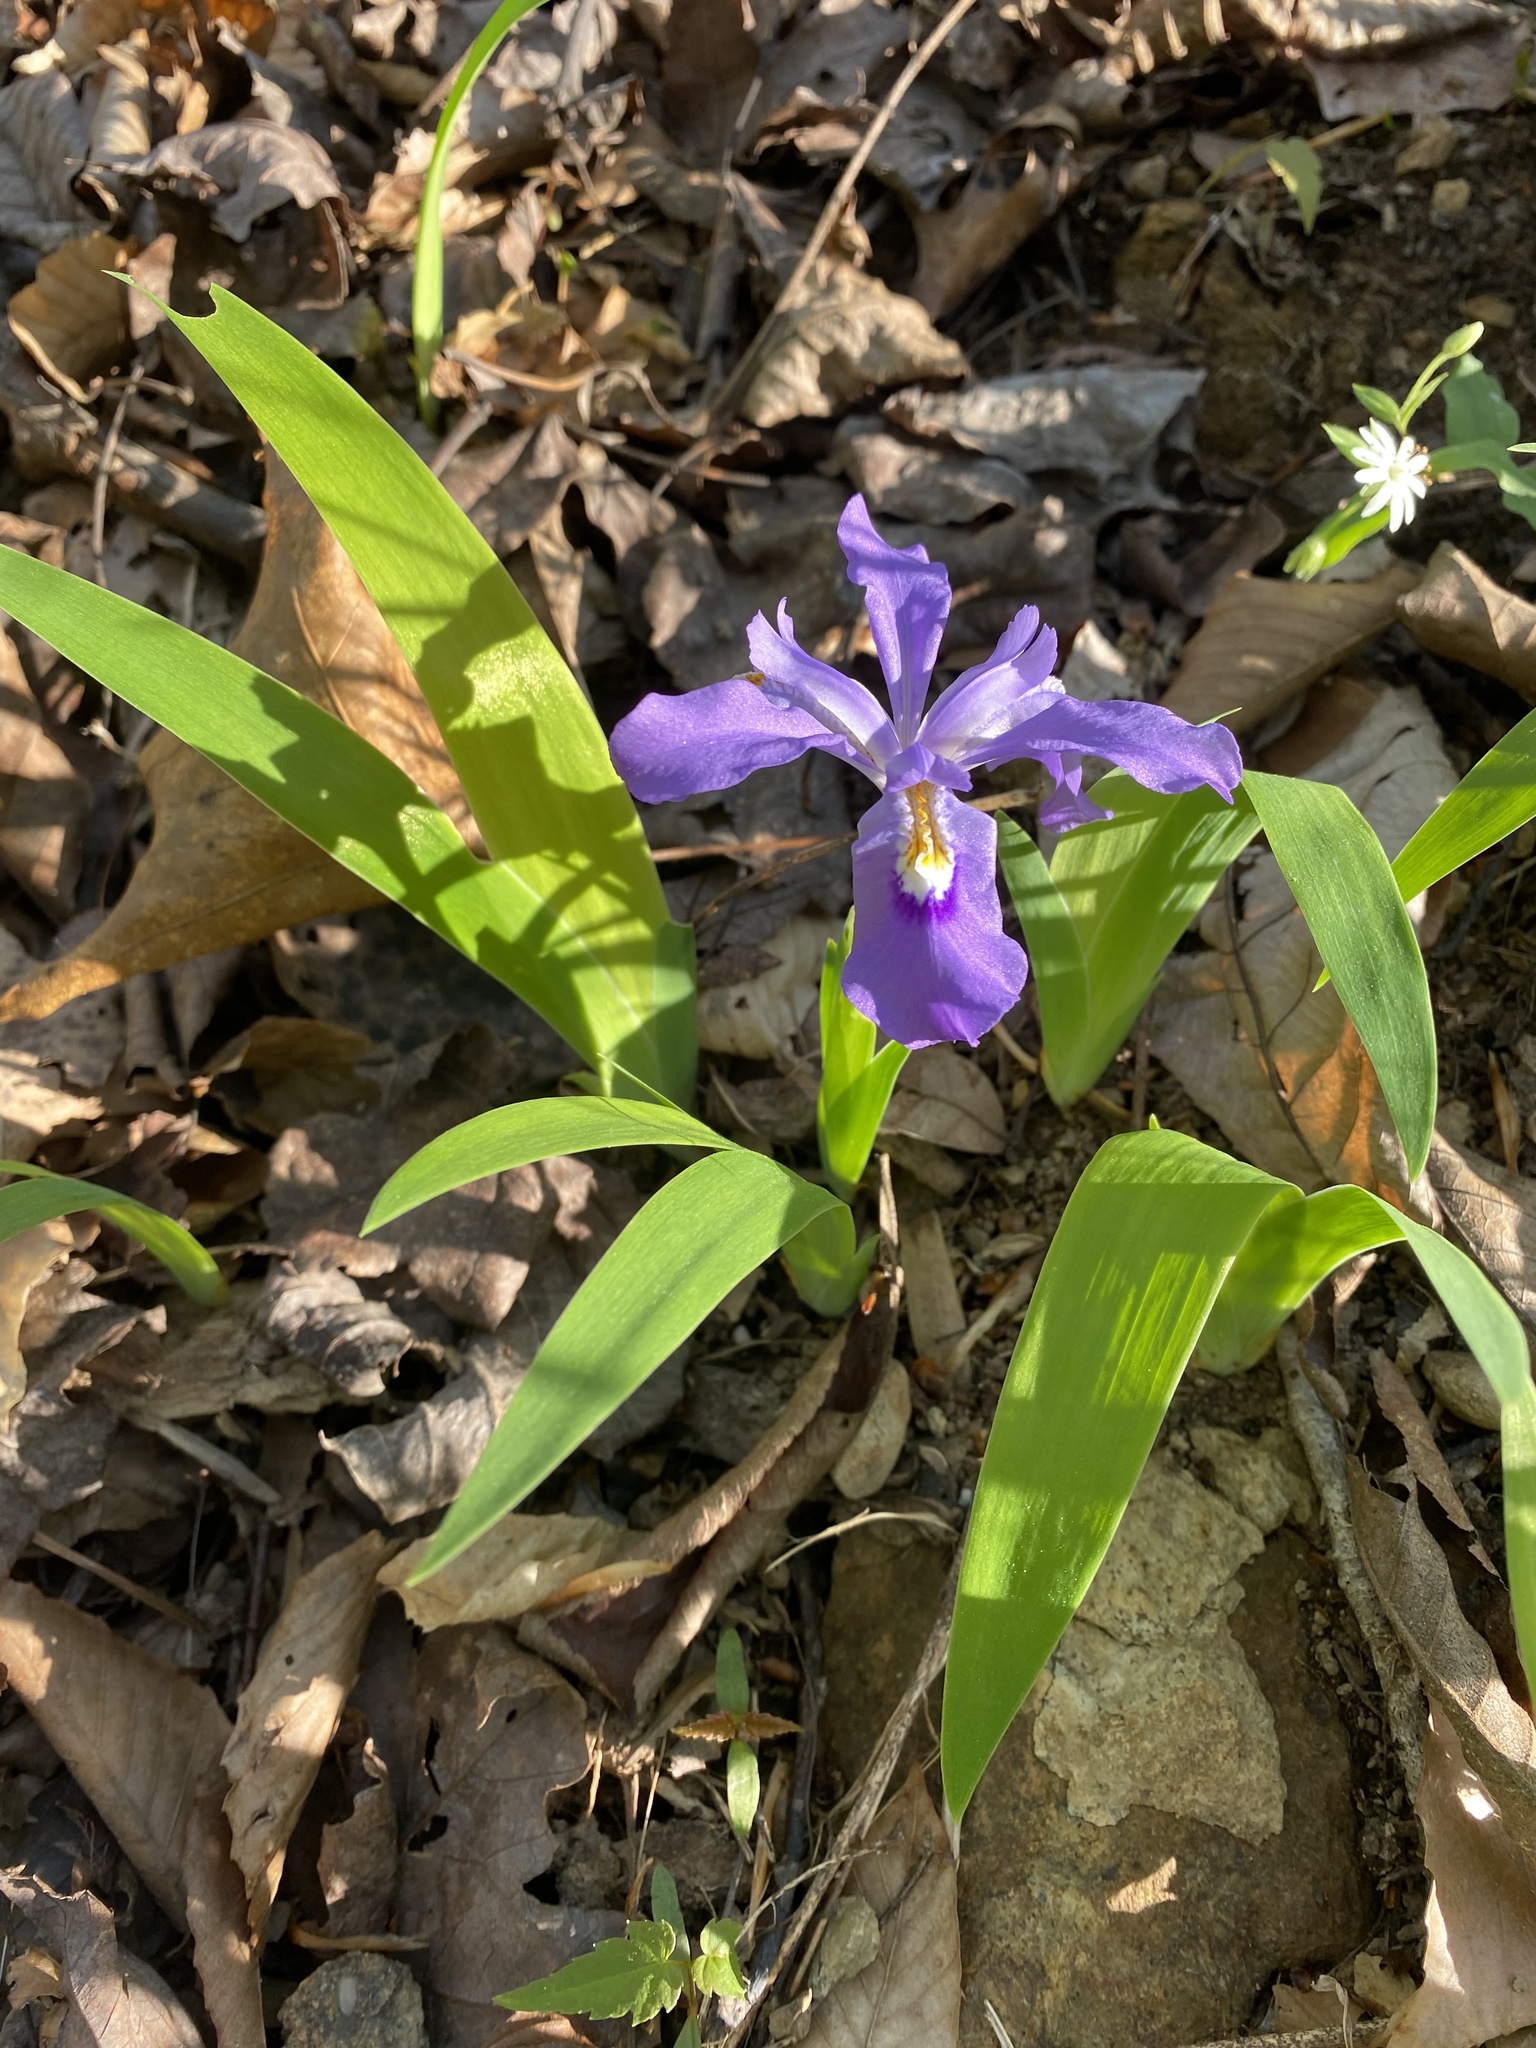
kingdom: Plantae
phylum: Tracheophyta
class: Liliopsida
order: Asparagales
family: Iridaceae
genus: Iris
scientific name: Iris cristata
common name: Crested iris
